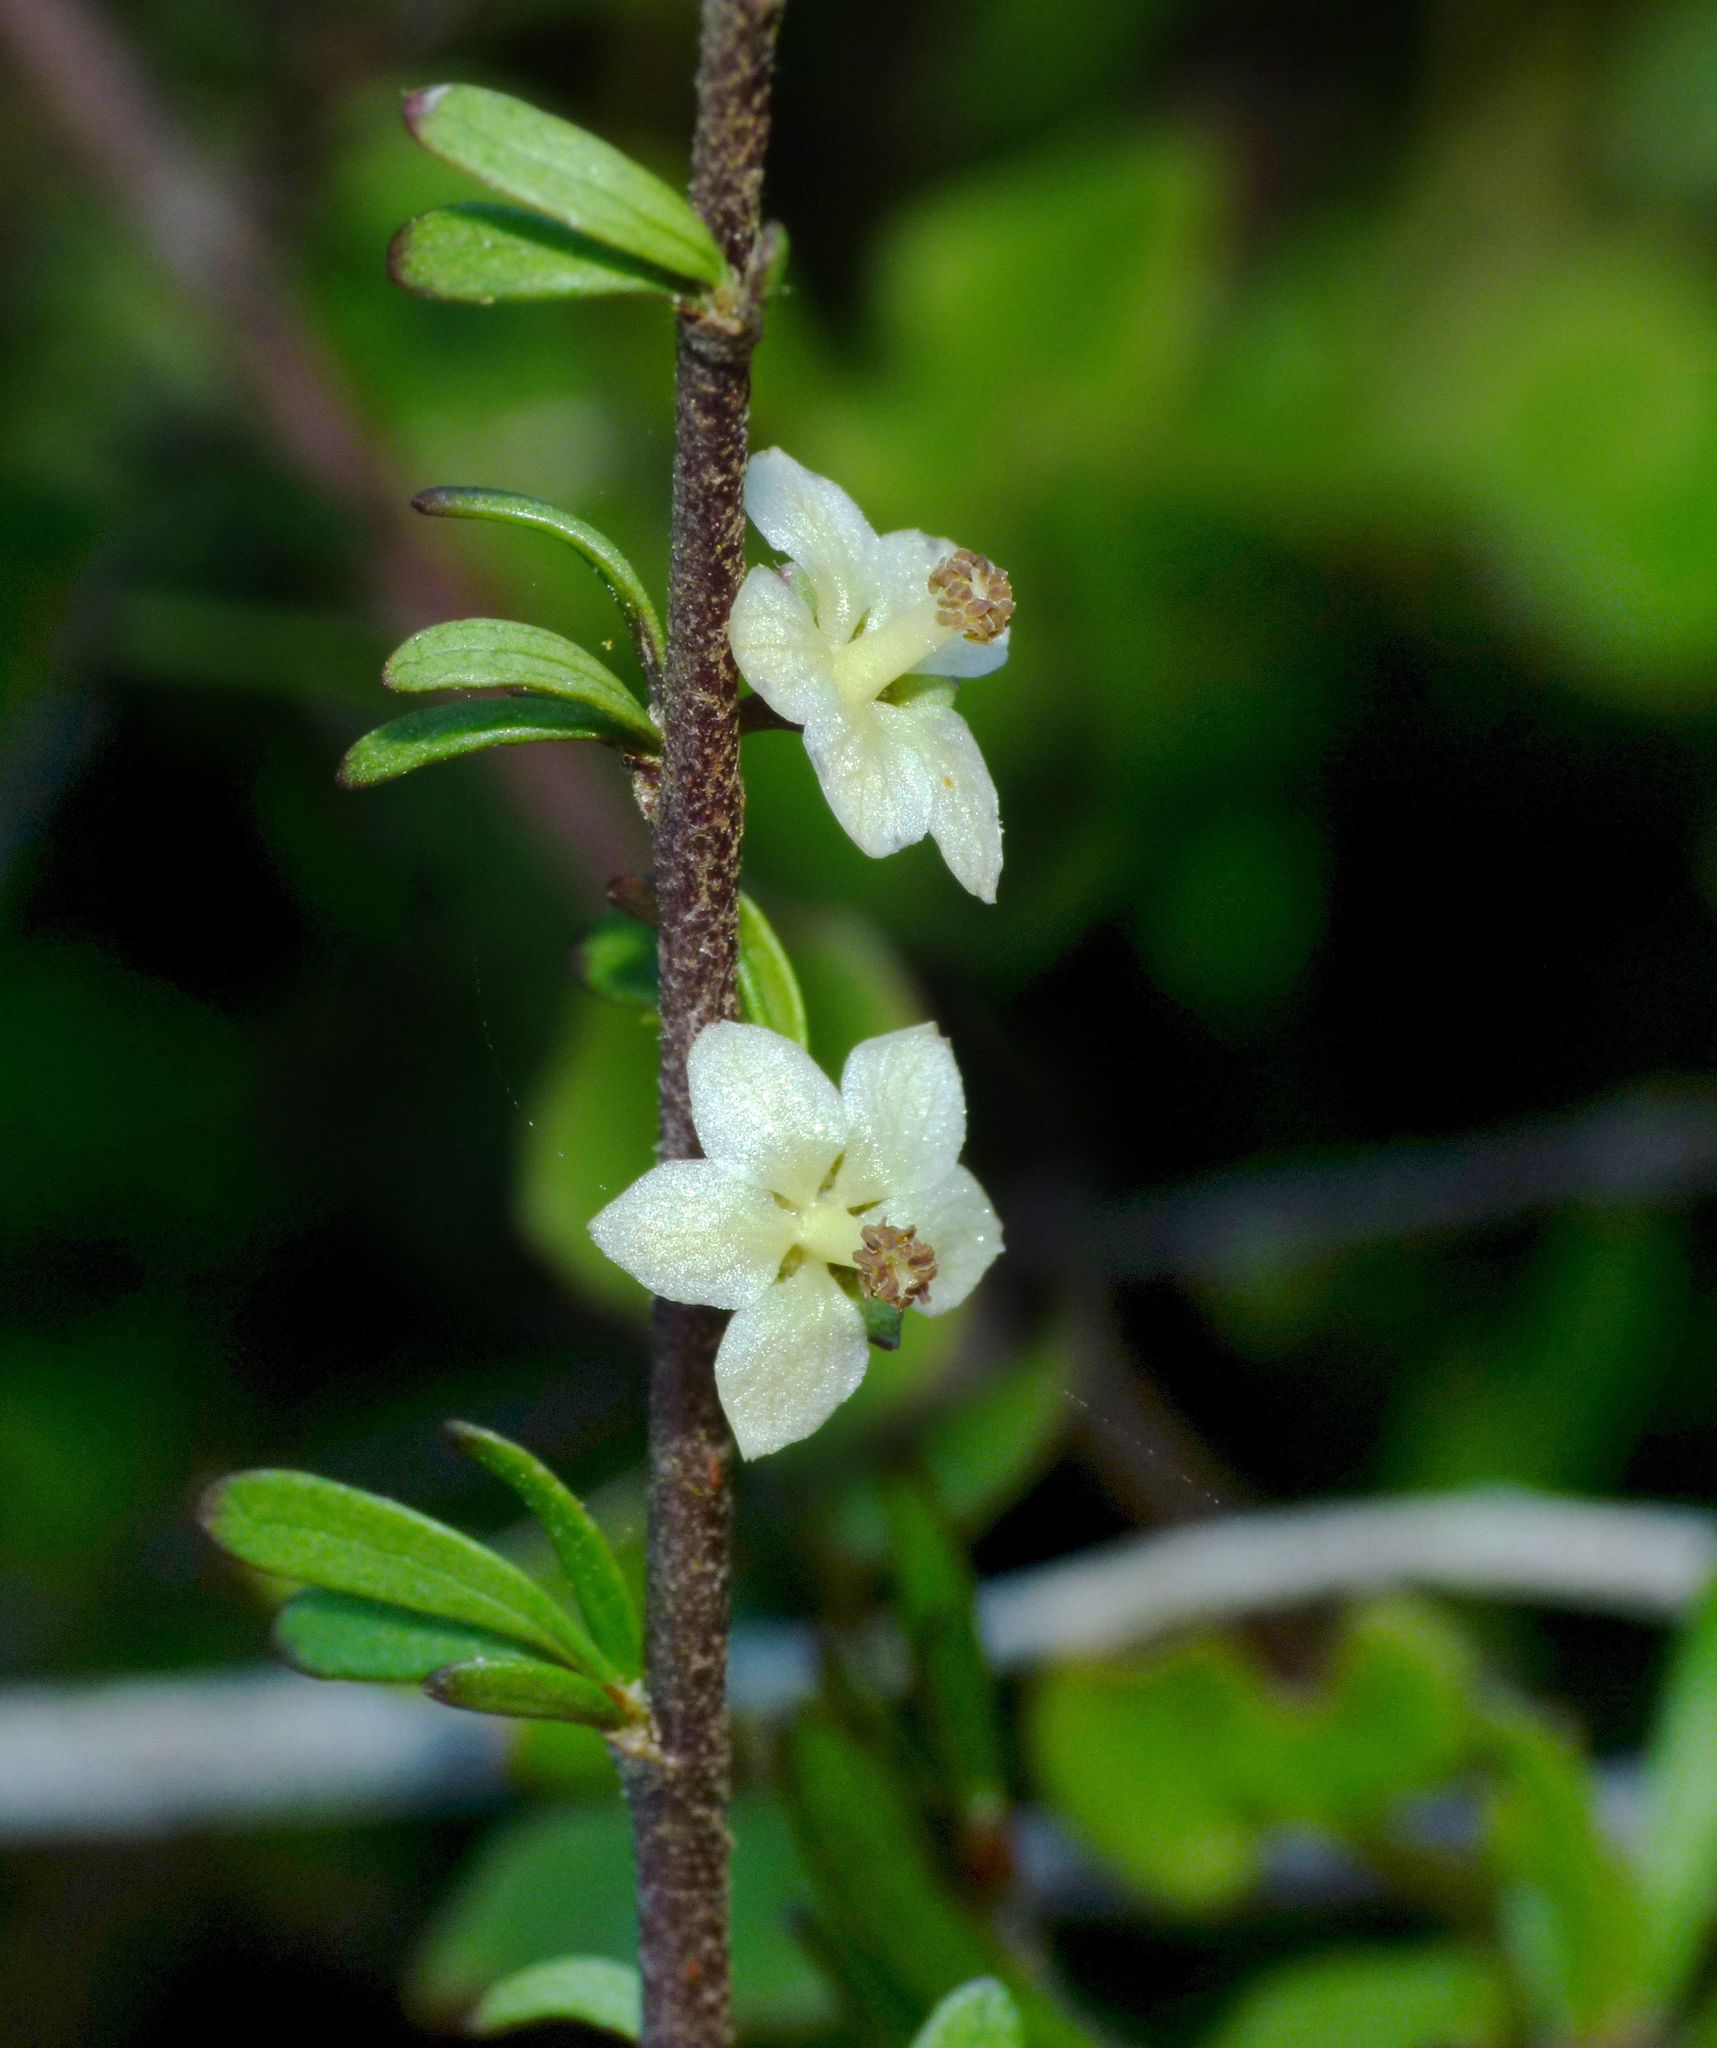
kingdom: Plantae
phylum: Tracheophyta
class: Magnoliopsida
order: Malvales
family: Malvaceae
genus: Plagianthus
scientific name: Plagianthus divaricatus
